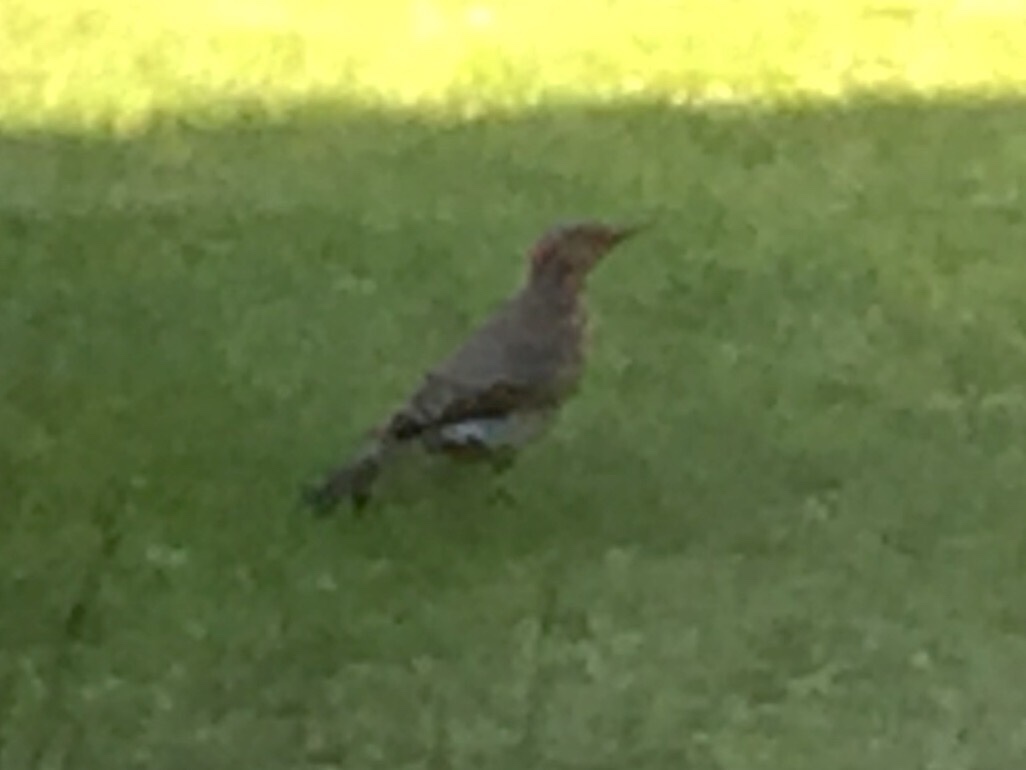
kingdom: Animalia
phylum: Chordata
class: Aves
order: Piciformes
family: Picidae
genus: Colaptes
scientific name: Colaptes auratus
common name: Northern flicker
